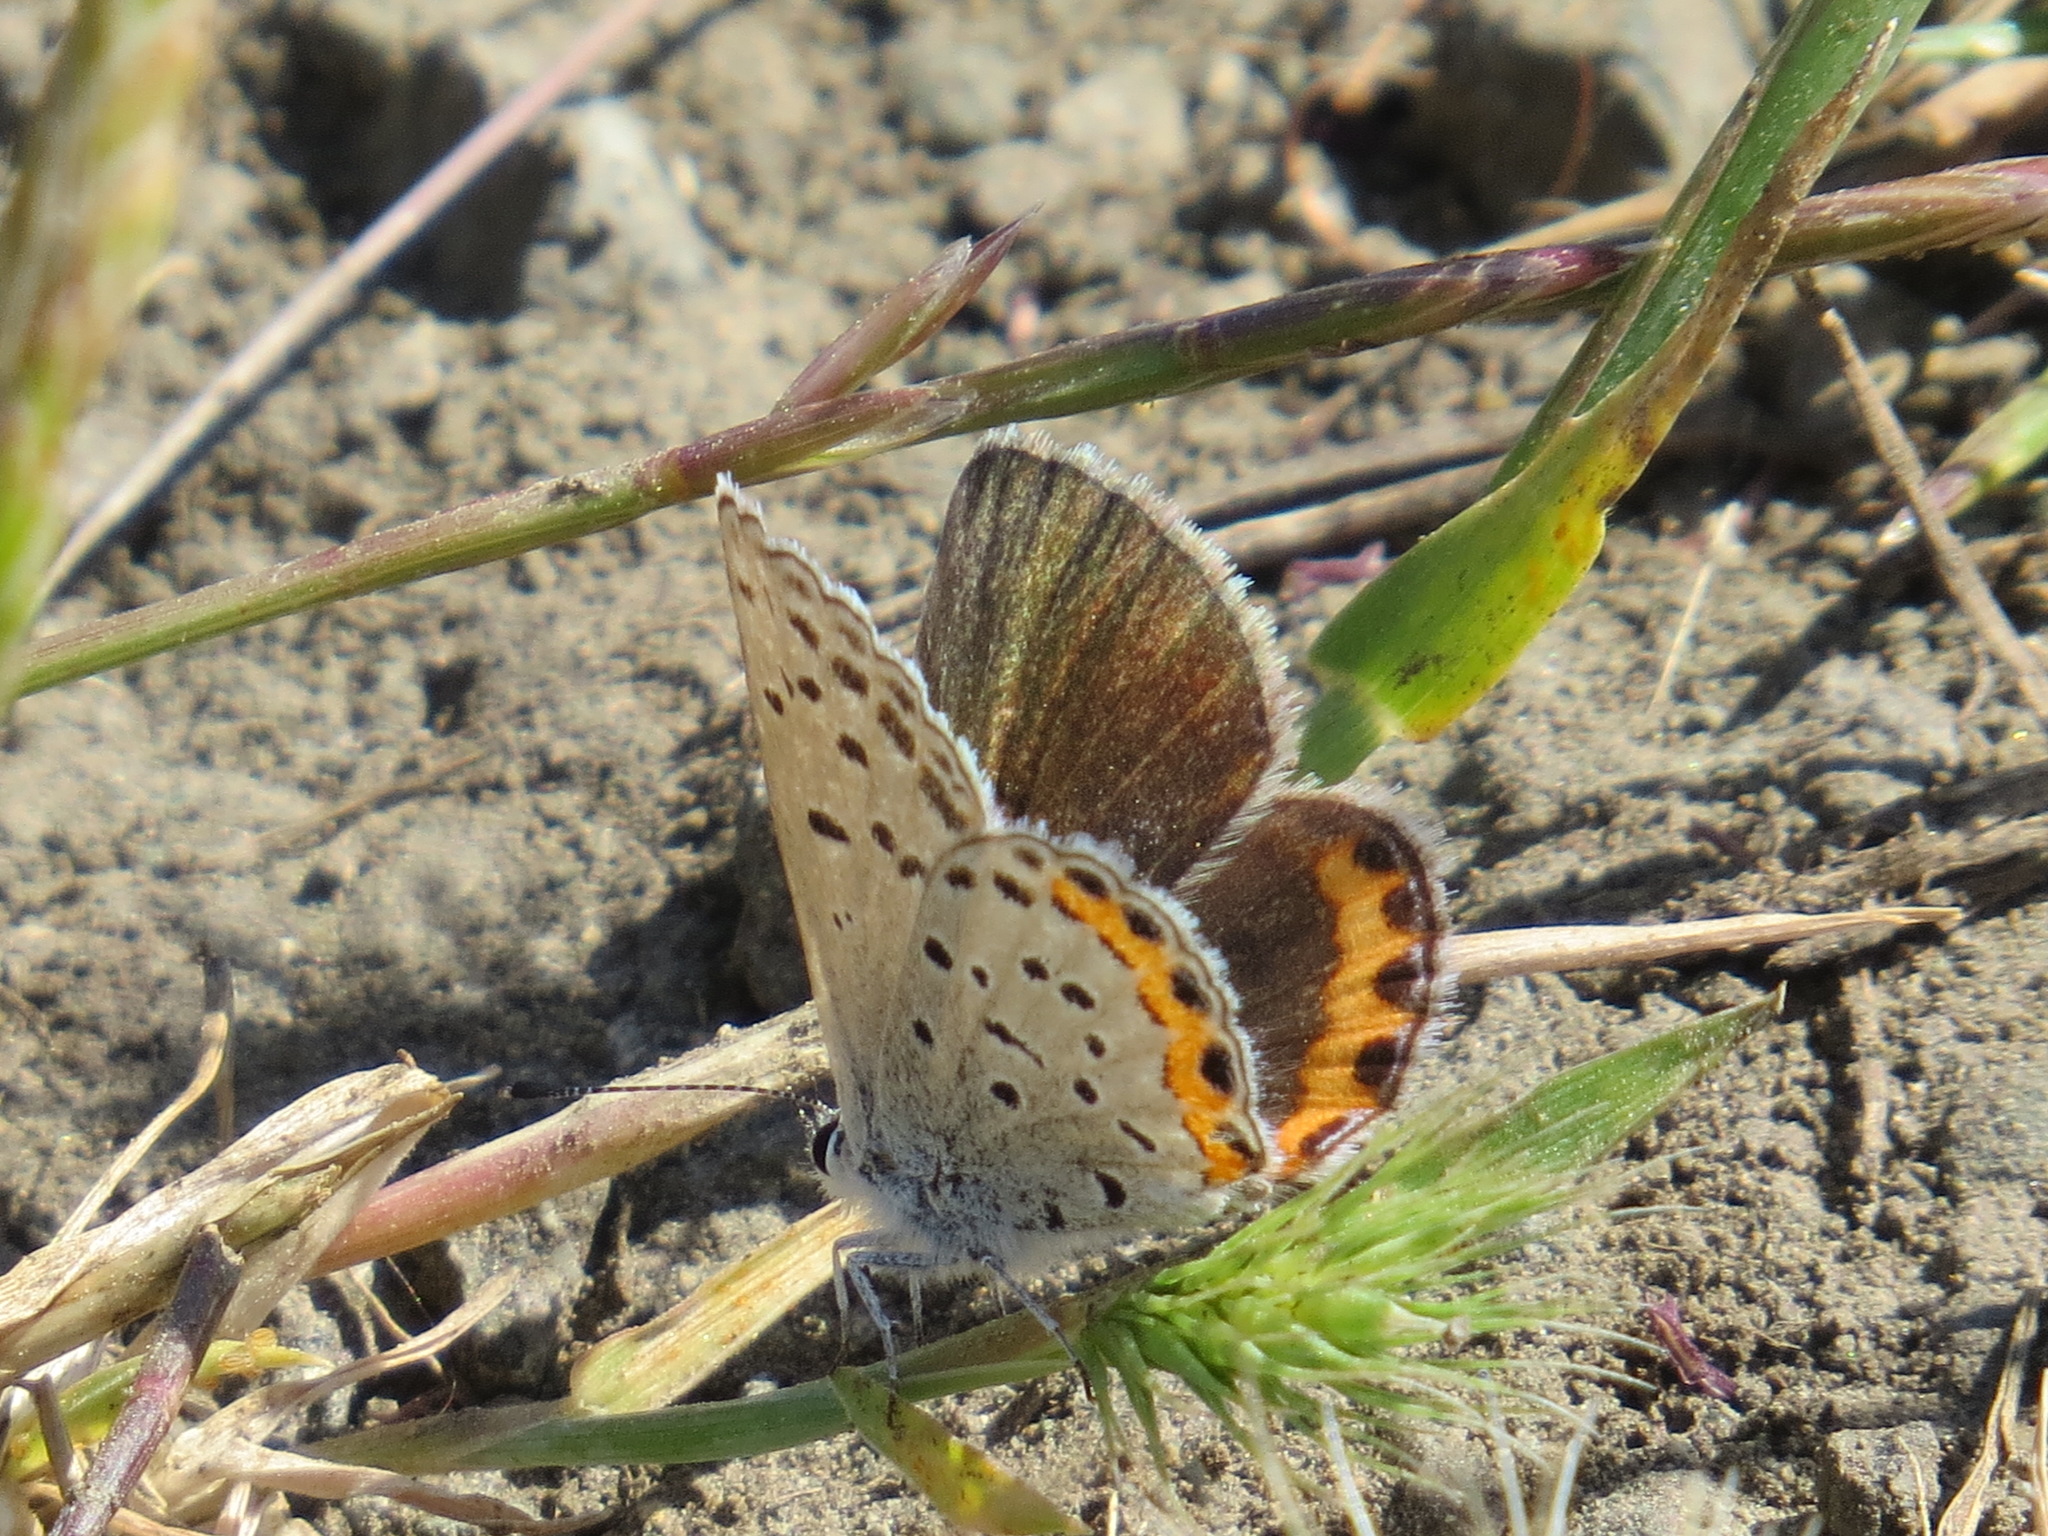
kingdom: Animalia
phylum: Arthropoda
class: Insecta
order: Lepidoptera
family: Lycaenidae
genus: Icaricia
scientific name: Icaricia acmon
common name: Acmon blue
